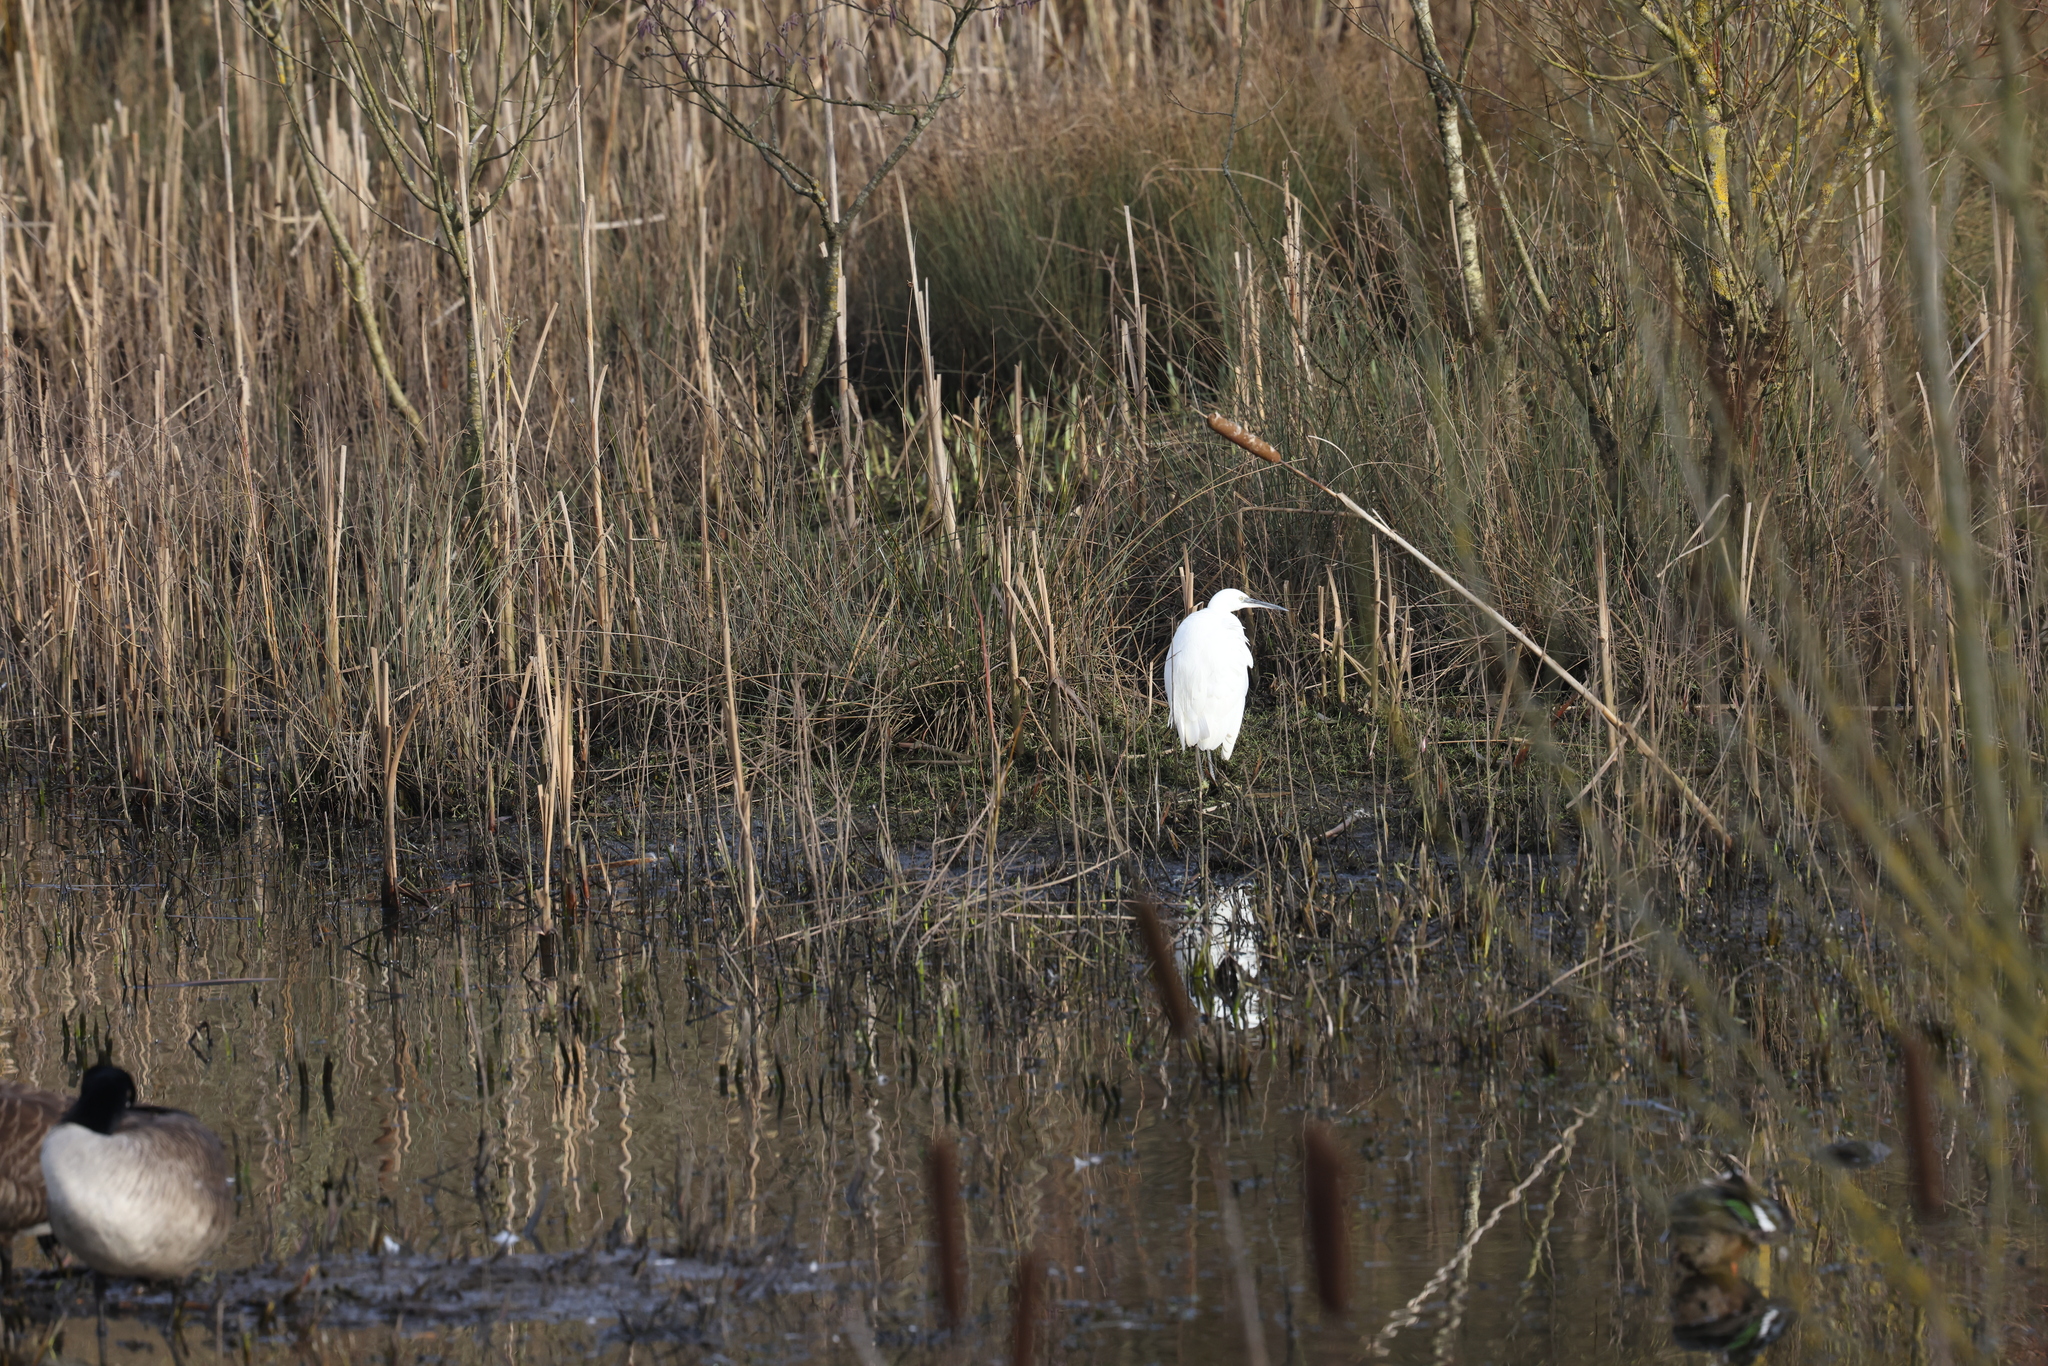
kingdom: Animalia
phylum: Chordata
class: Aves
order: Pelecaniformes
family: Ardeidae
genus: Egretta
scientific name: Egretta garzetta
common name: Little egret
